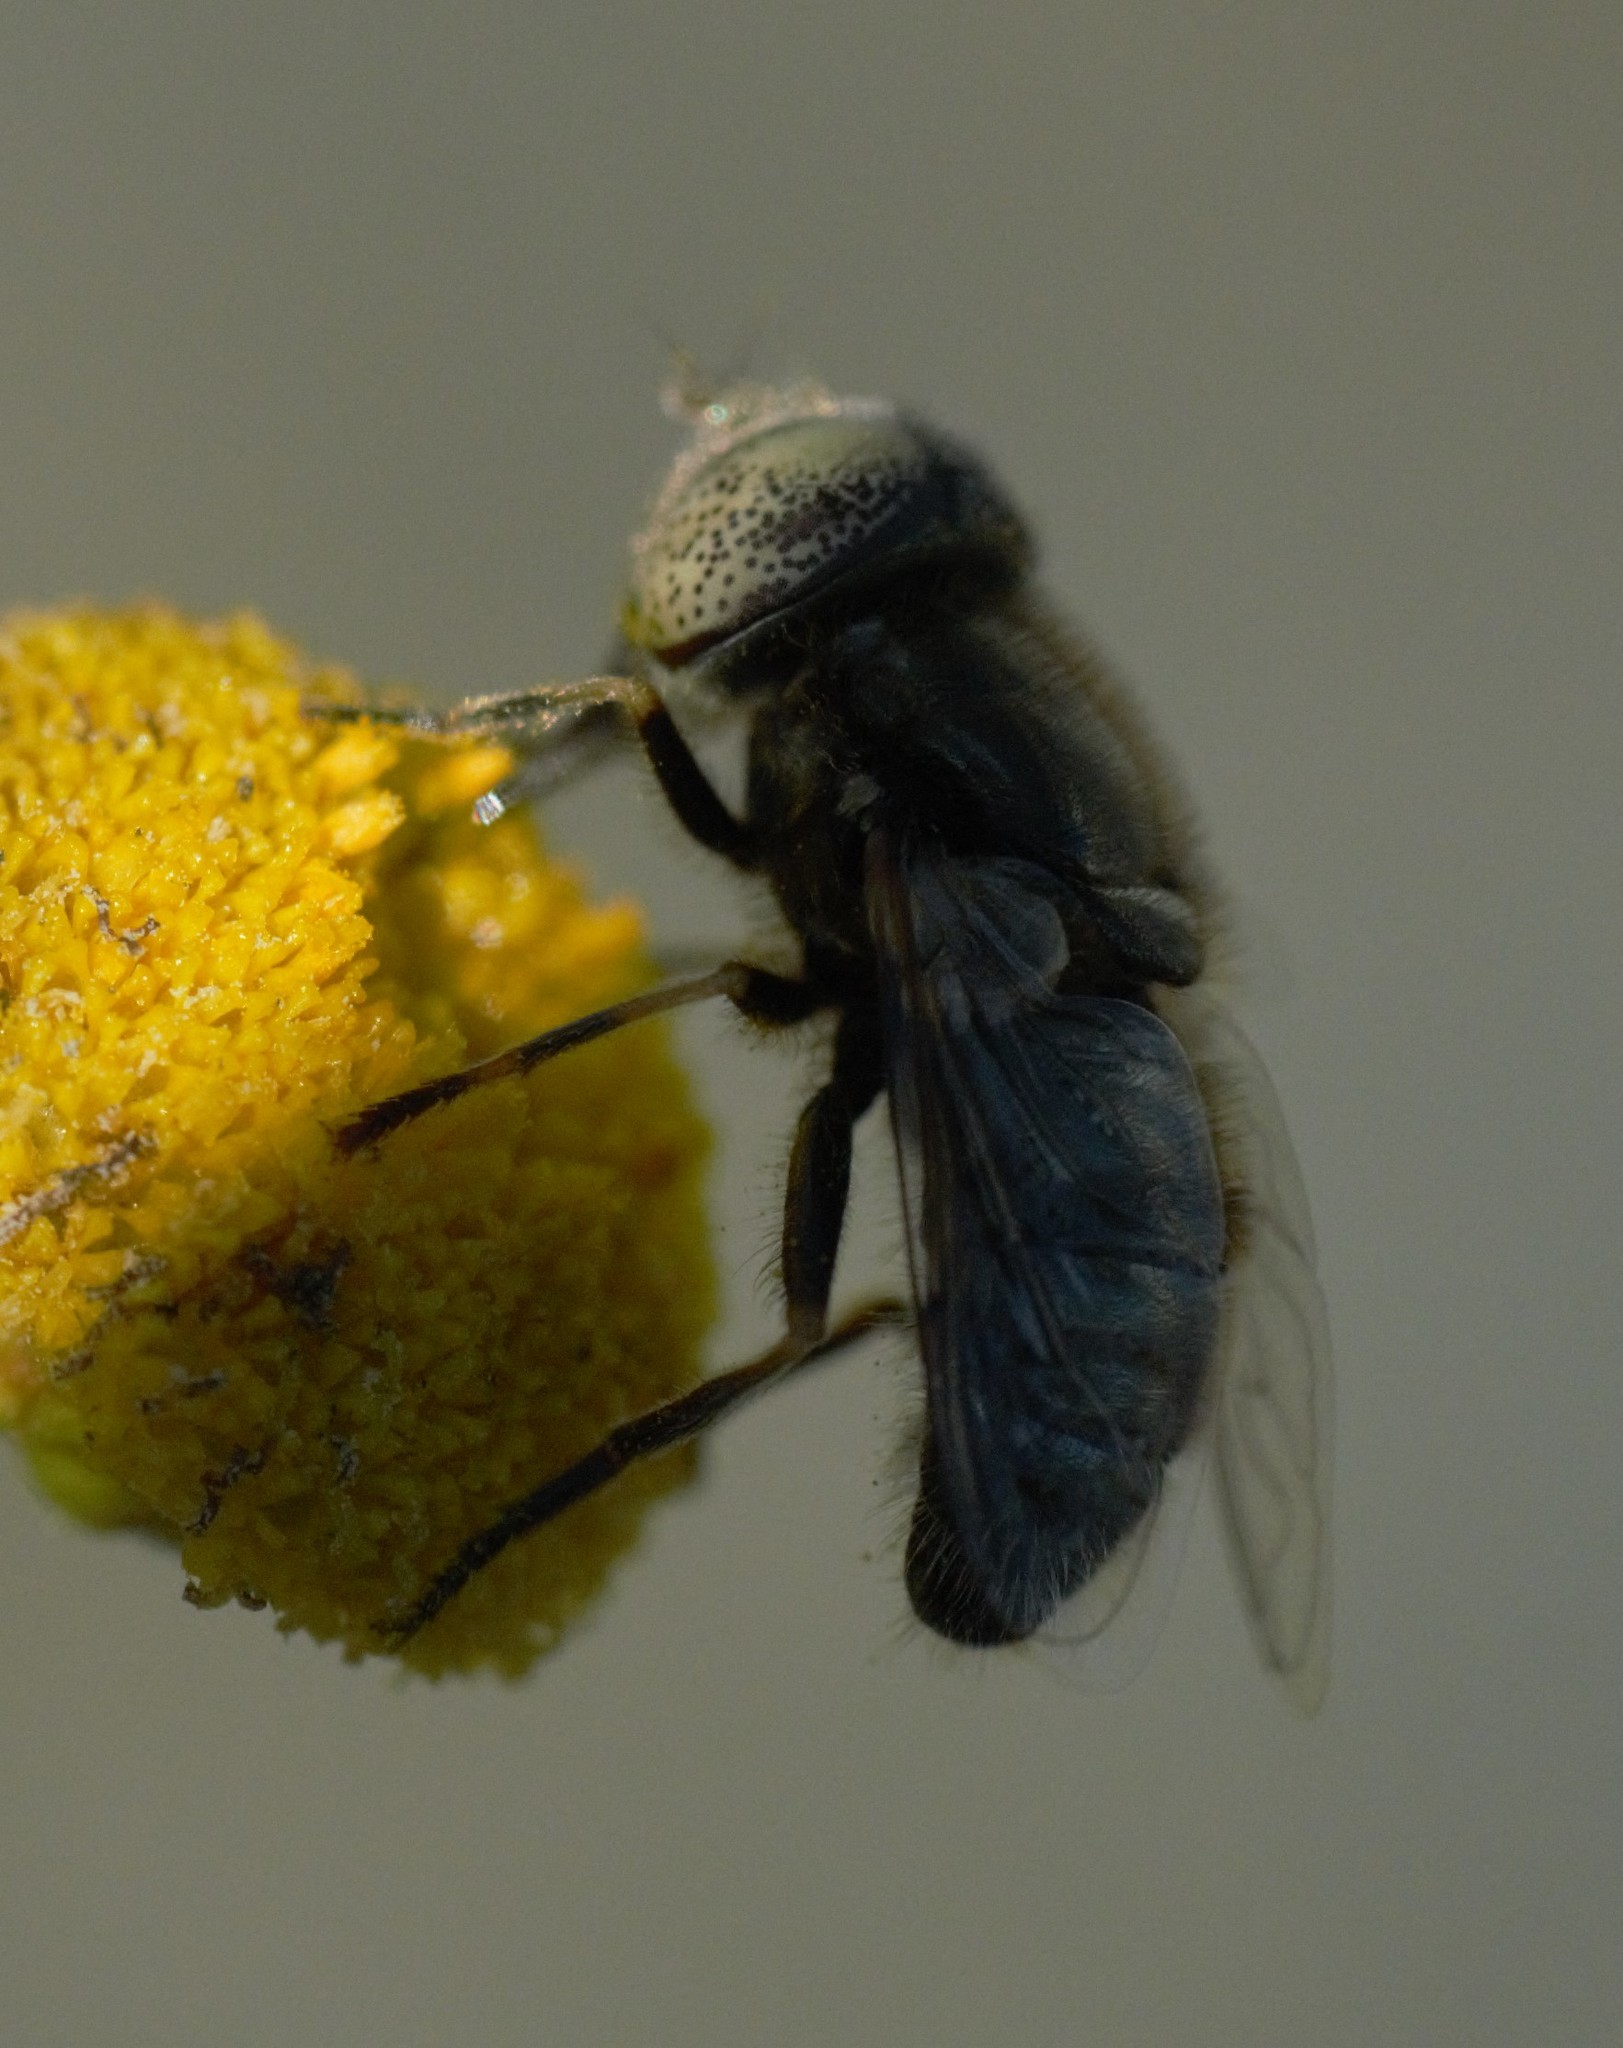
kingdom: Animalia
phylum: Arthropoda
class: Insecta
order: Diptera
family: Syrphidae
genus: Eristalinus
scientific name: Eristalinus aeneus
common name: Syrphid fly
